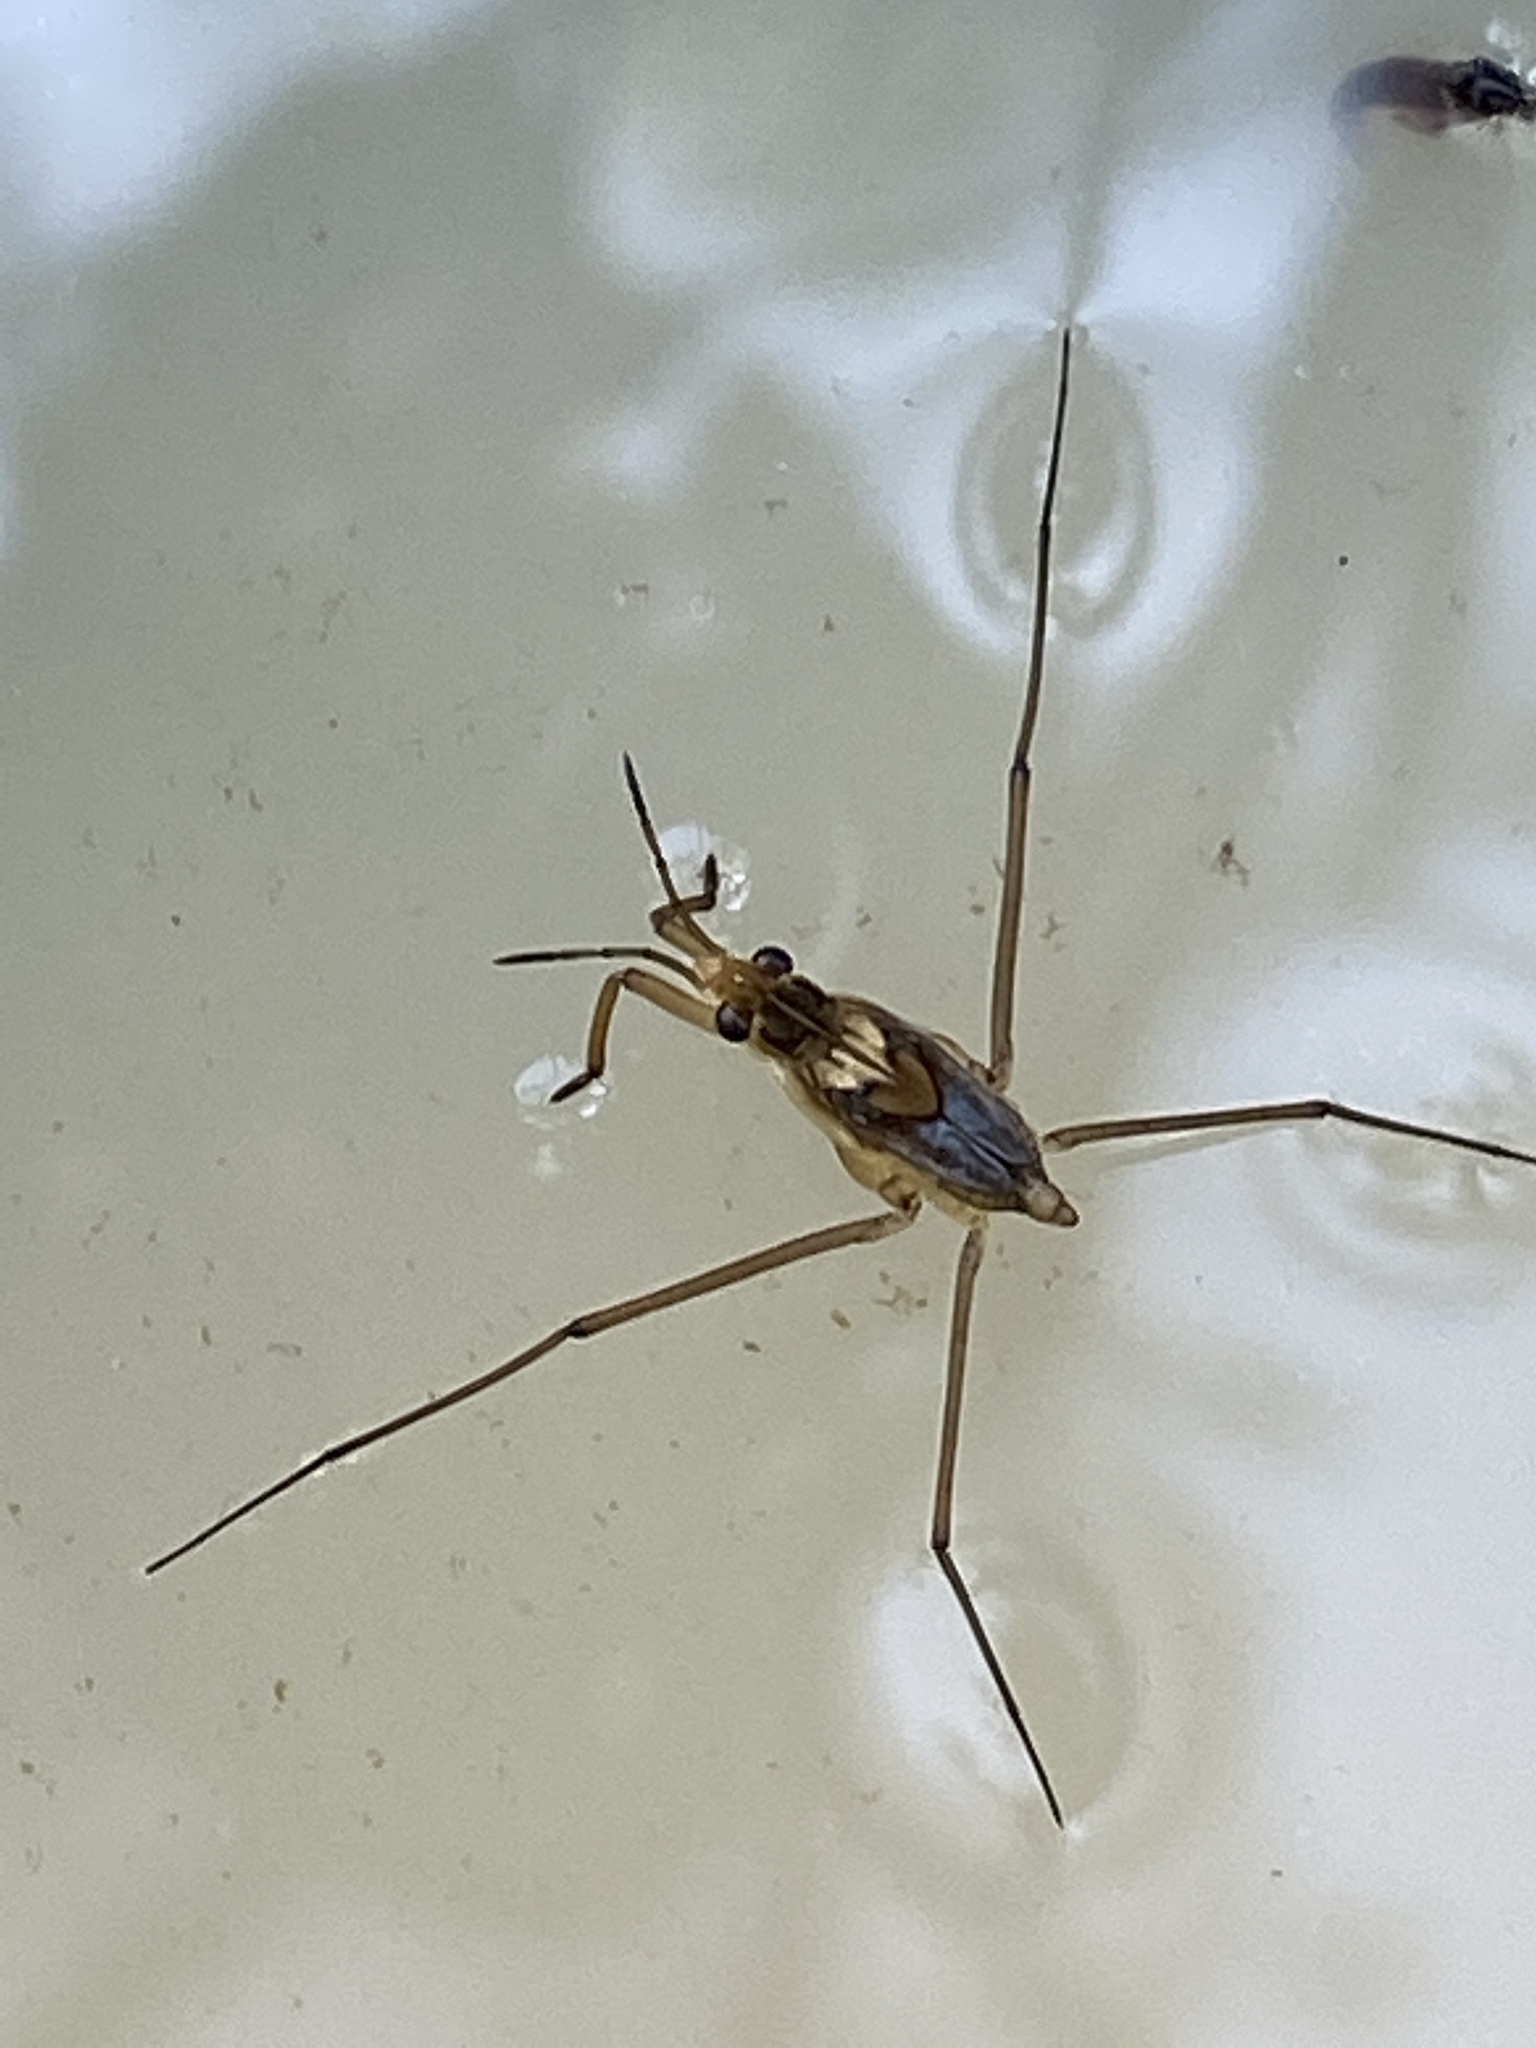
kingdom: Animalia
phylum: Arthropoda
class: Insecta
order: Hemiptera
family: Gerridae
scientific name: Gerridae
